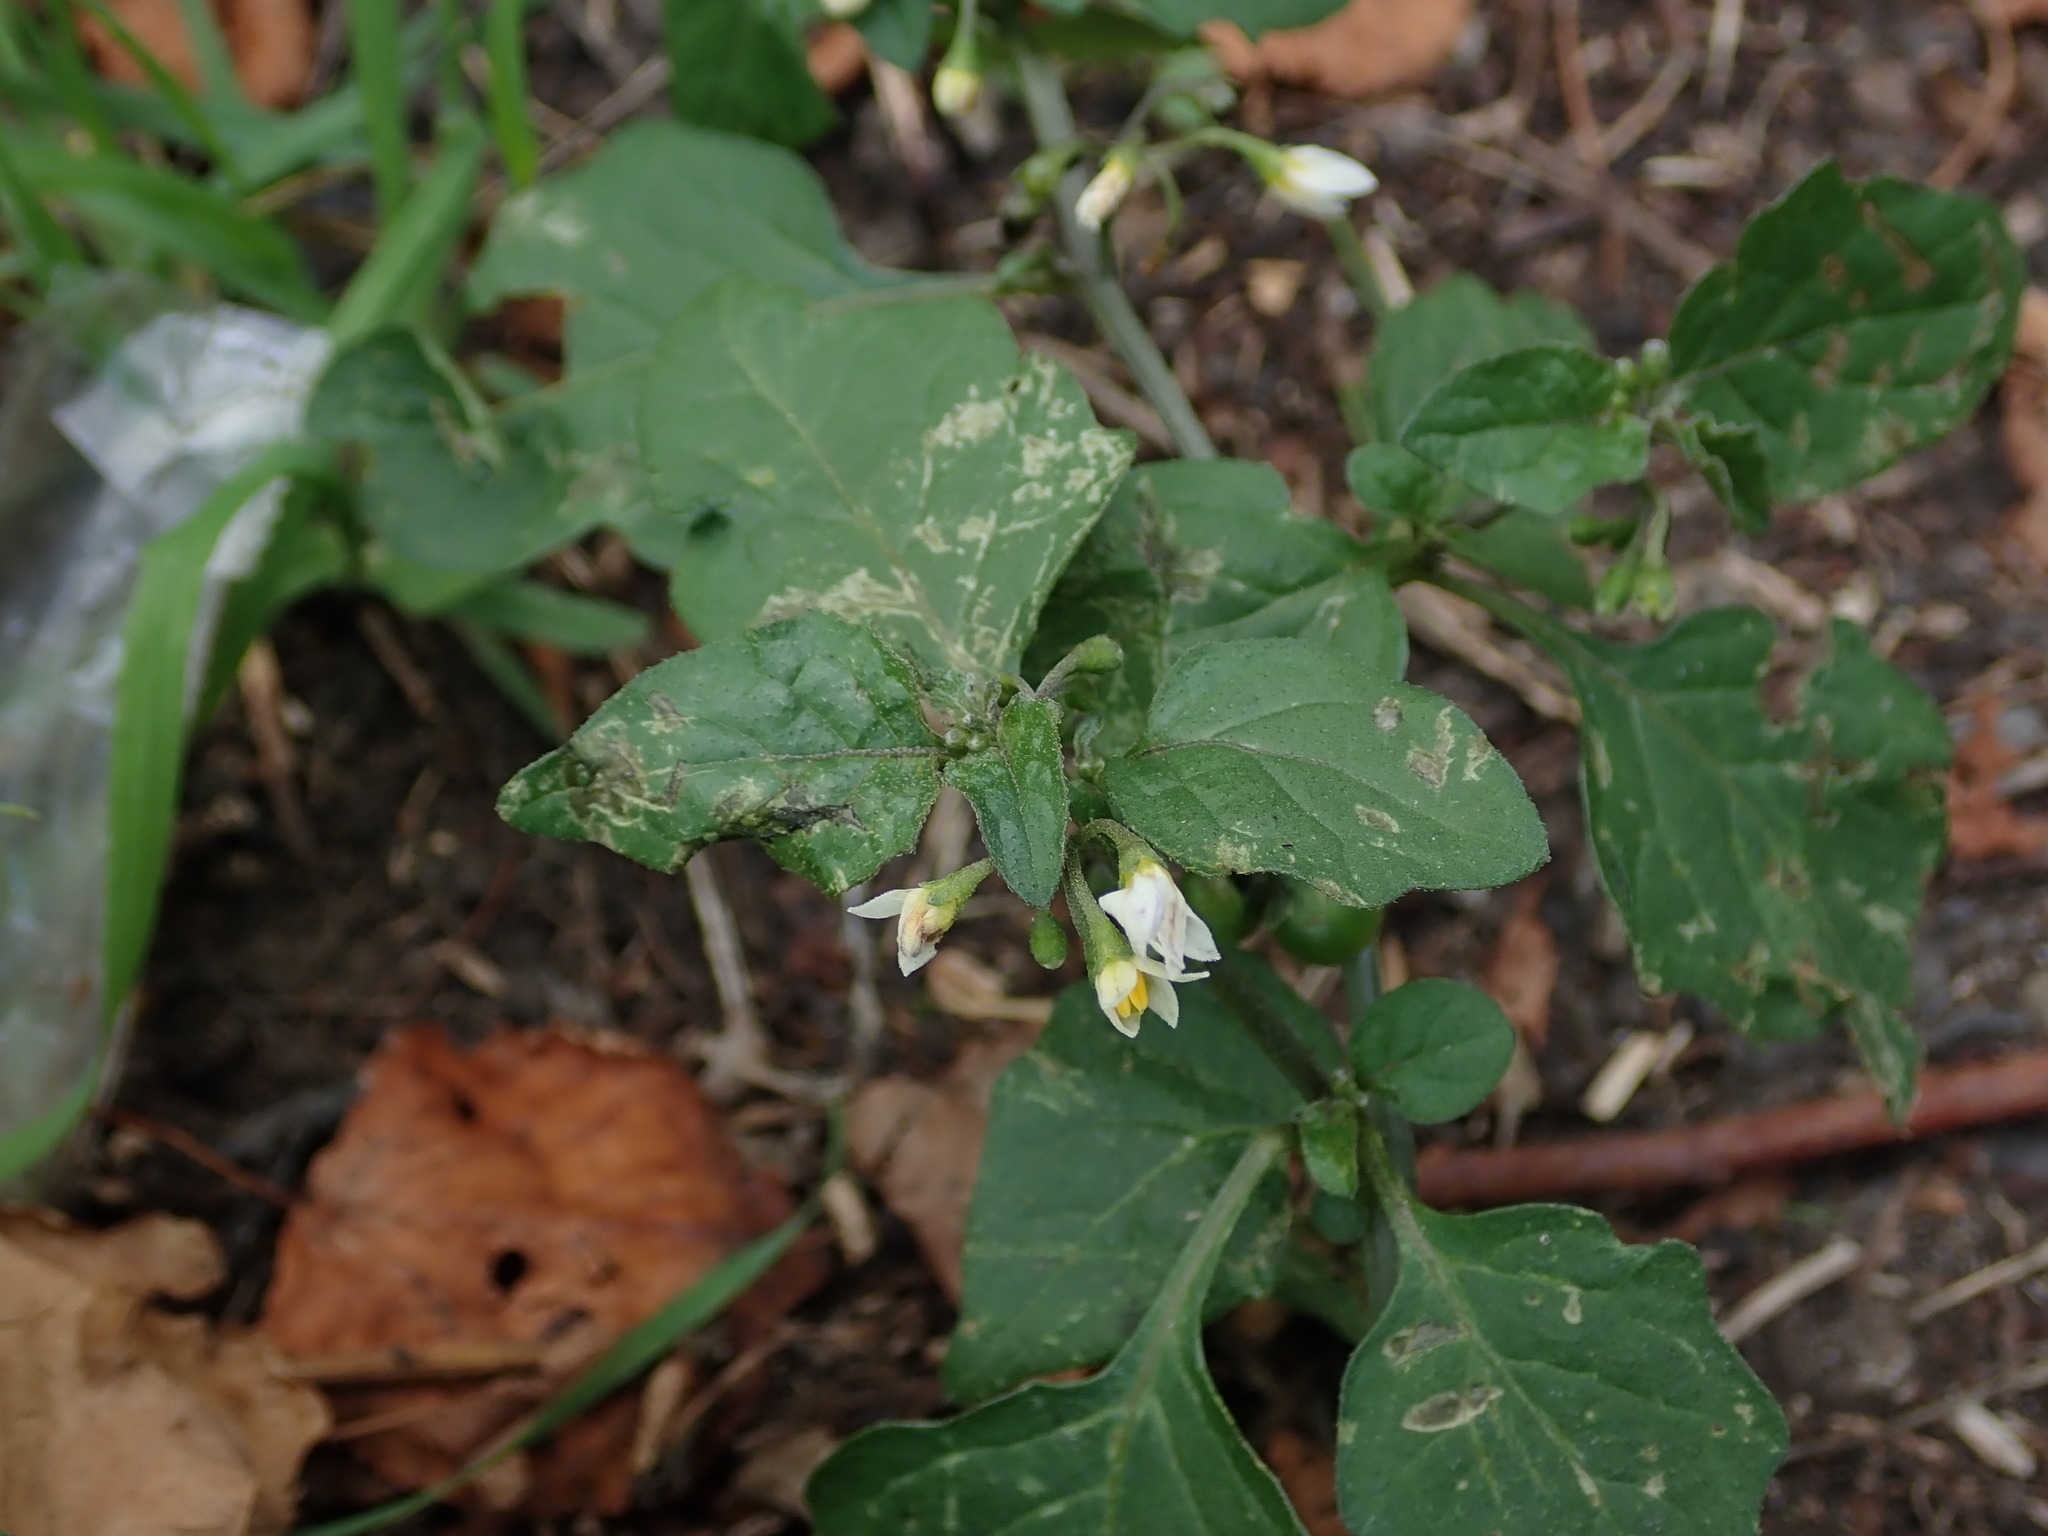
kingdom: Plantae
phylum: Tracheophyta
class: Magnoliopsida
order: Solanales
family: Solanaceae
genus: Solanum
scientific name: Solanum nigrum
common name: Black nightshade
